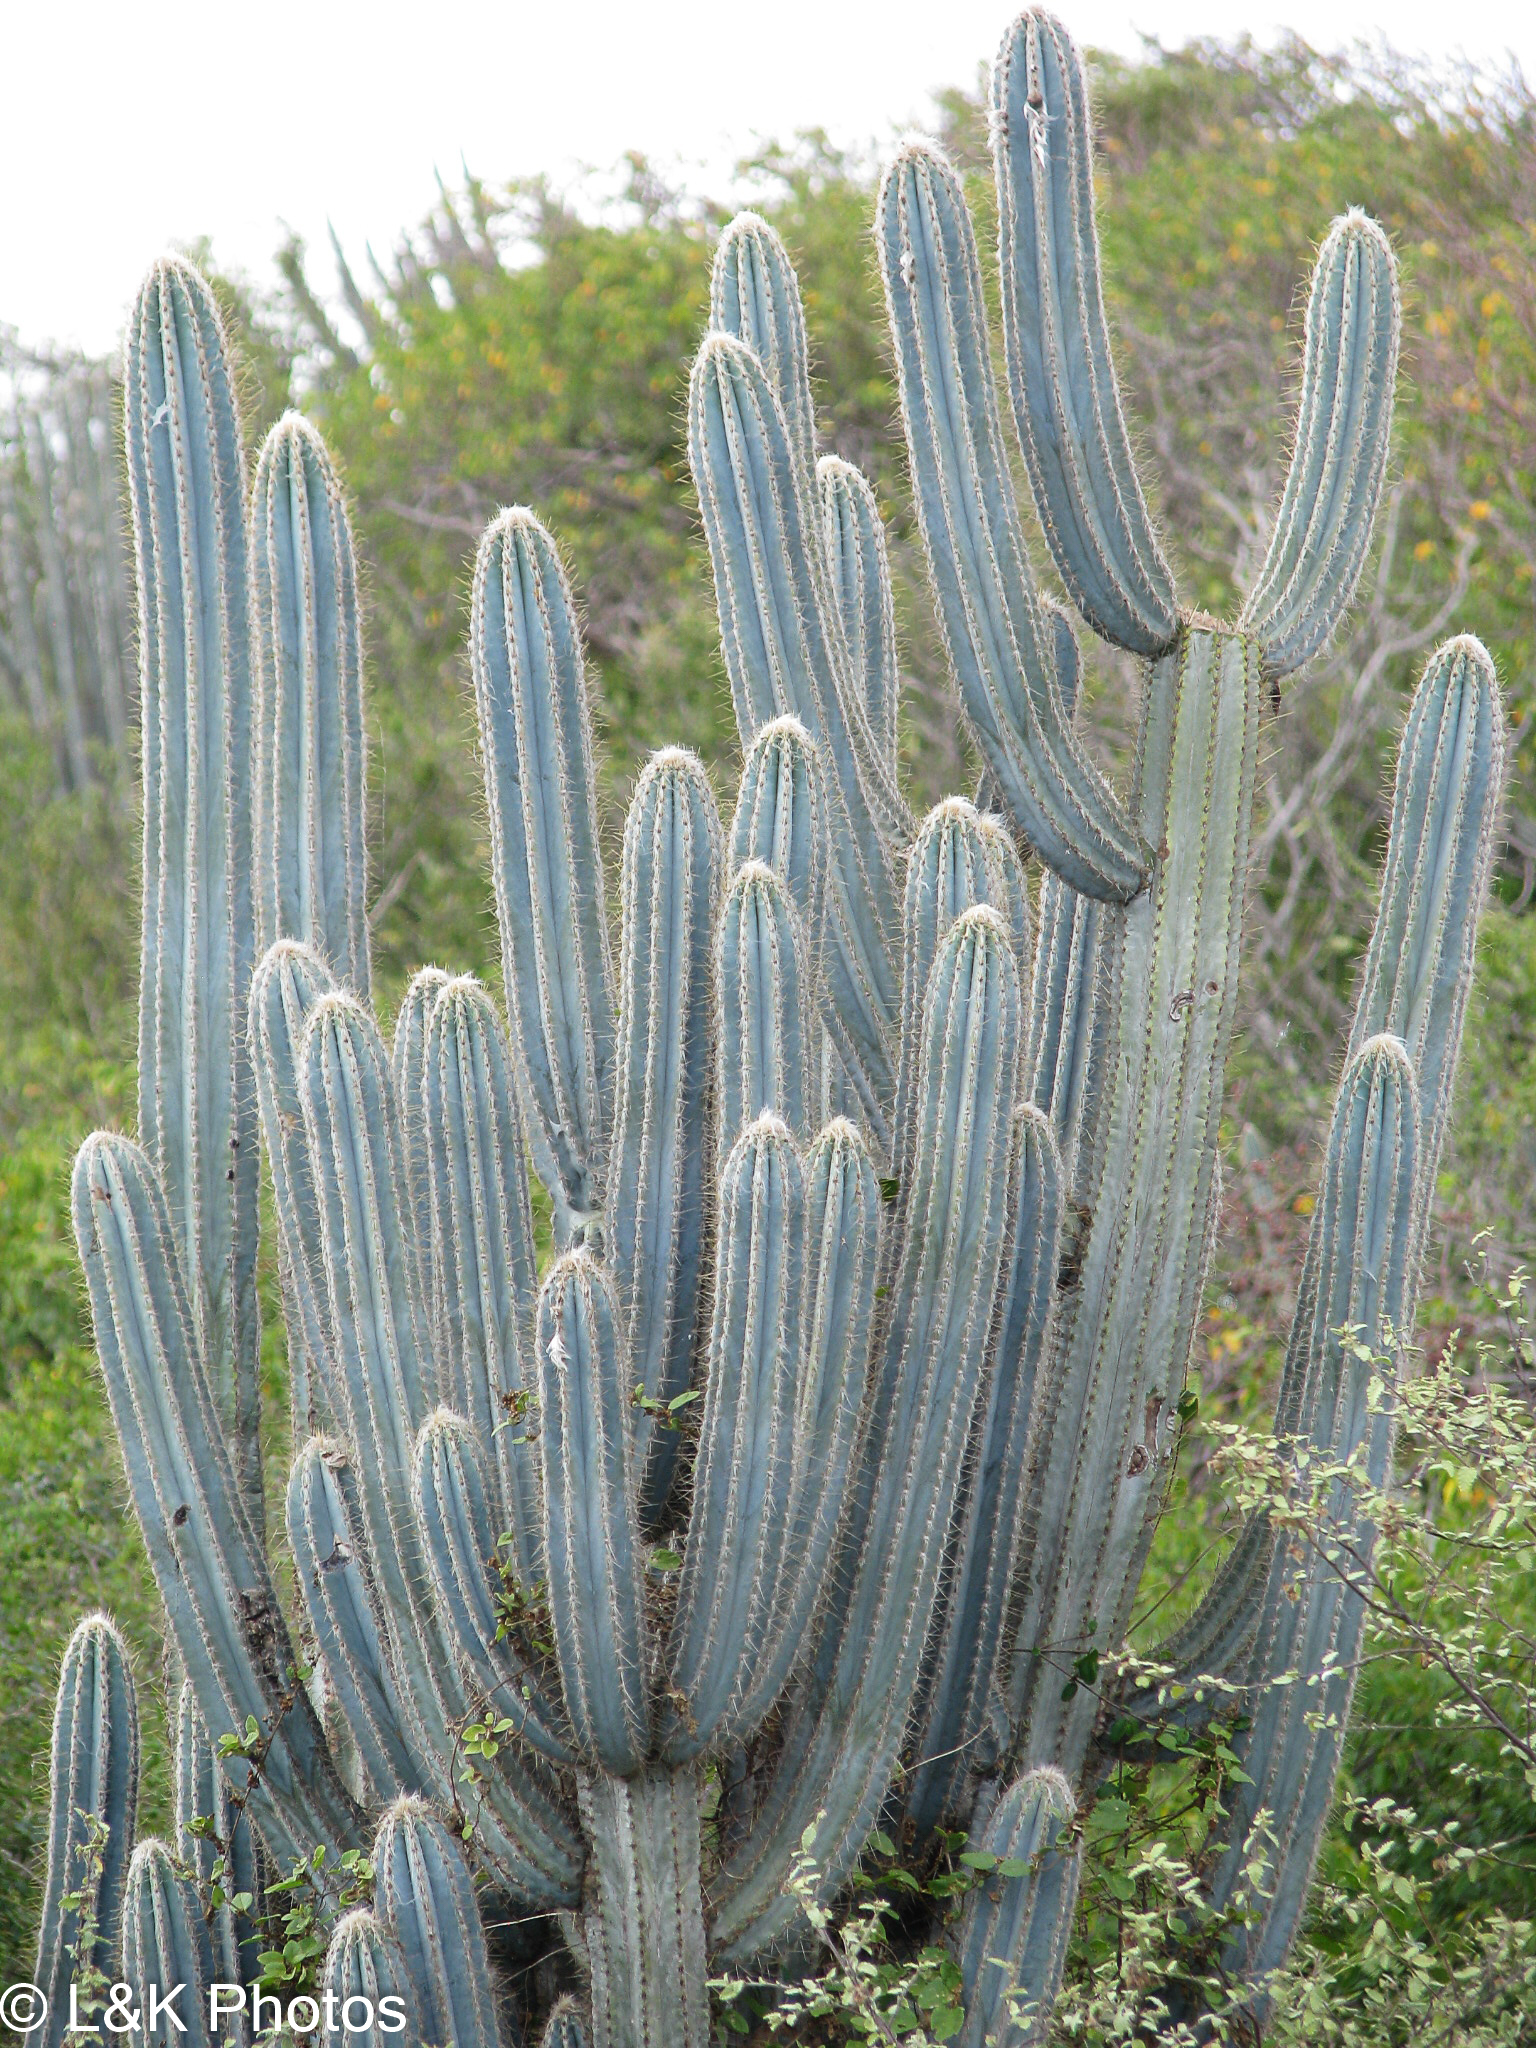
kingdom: Plantae
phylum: Tracheophyta
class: Magnoliopsida
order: Caryophyllales
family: Cactaceae
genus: Pilosocereus
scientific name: Pilosocereus armatus
